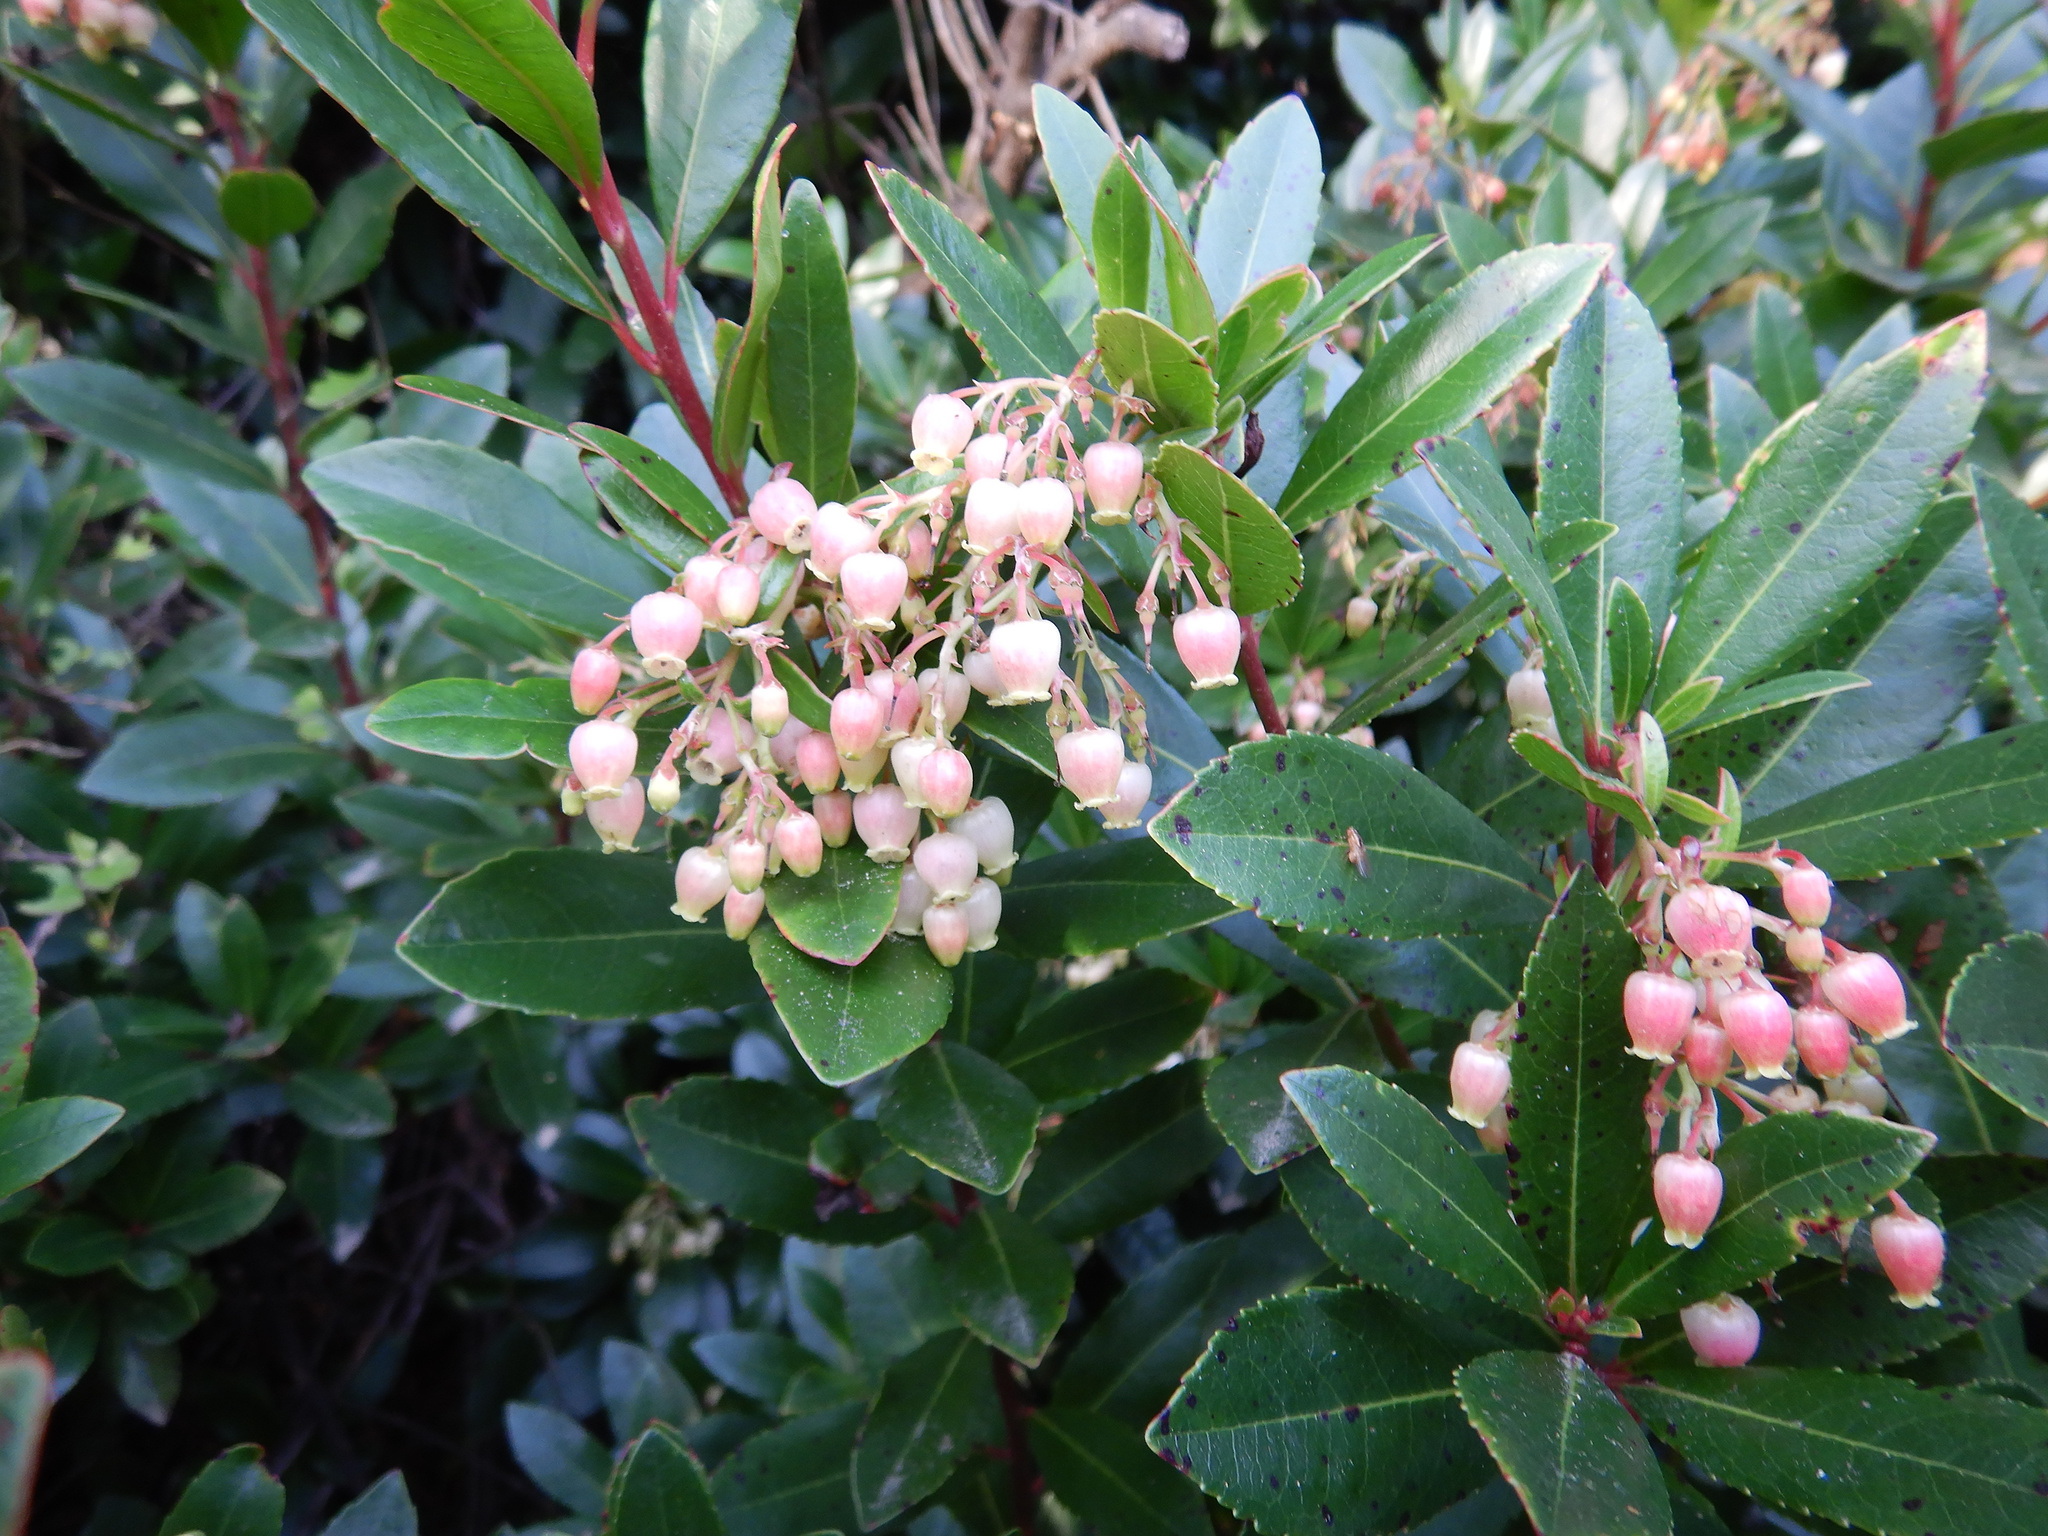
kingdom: Plantae
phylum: Tracheophyta
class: Magnoliopsida
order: Ericales
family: Ericaceae
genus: Arbutus
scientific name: Arbutus unedo
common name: Strawberry-tree
